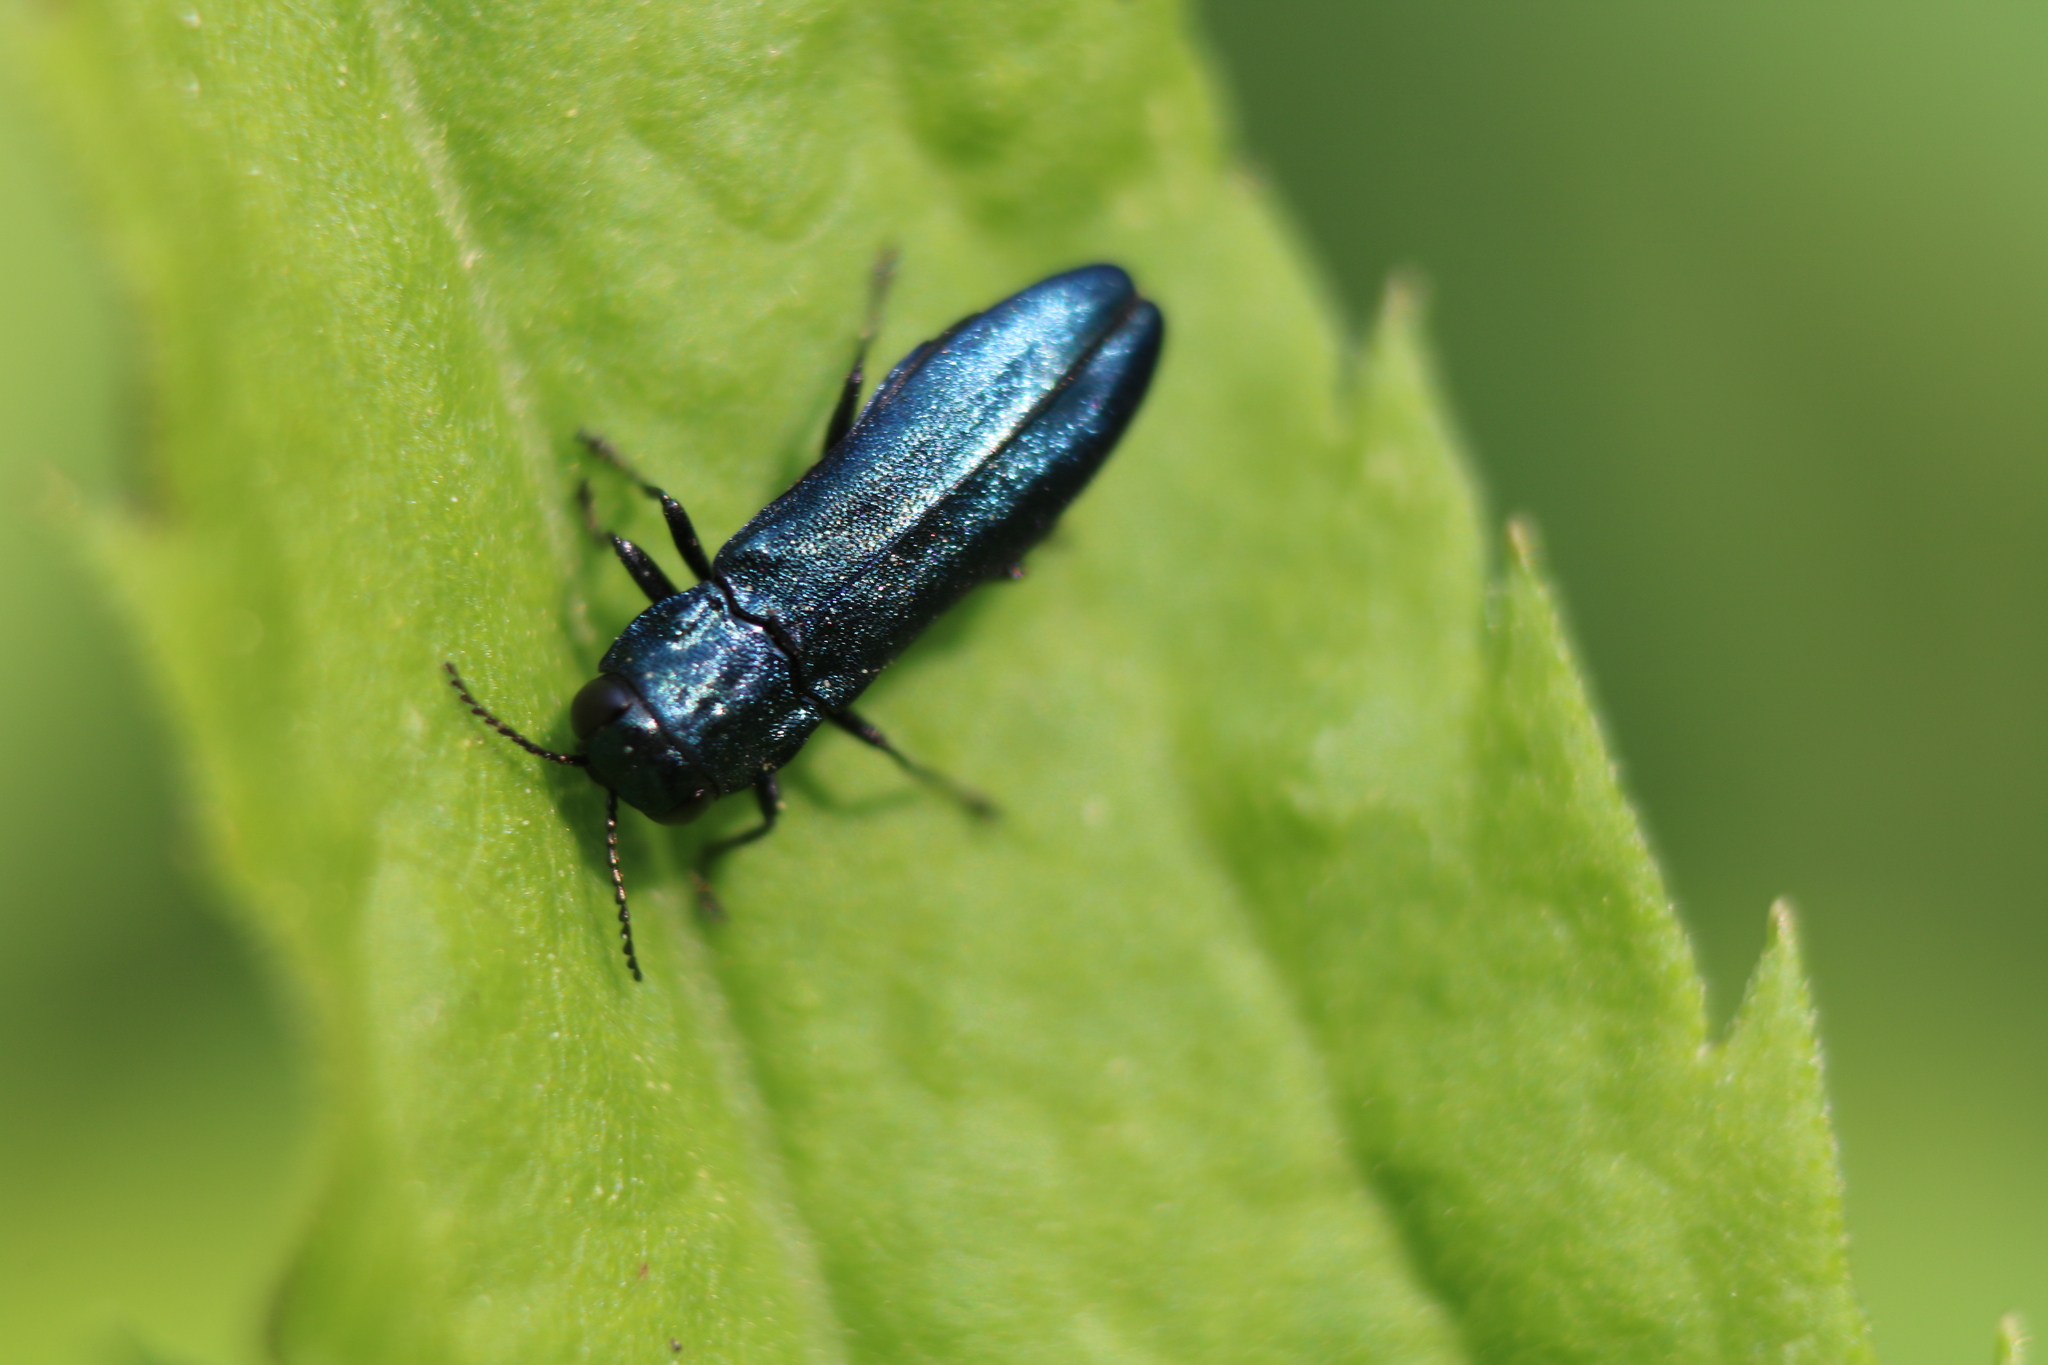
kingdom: Animalia
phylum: Arthropoda
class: Insecta
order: Coleoptera
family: Buprestidae
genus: Agrilus
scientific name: Agrilus cyanescens
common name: Bluish borer beetle
